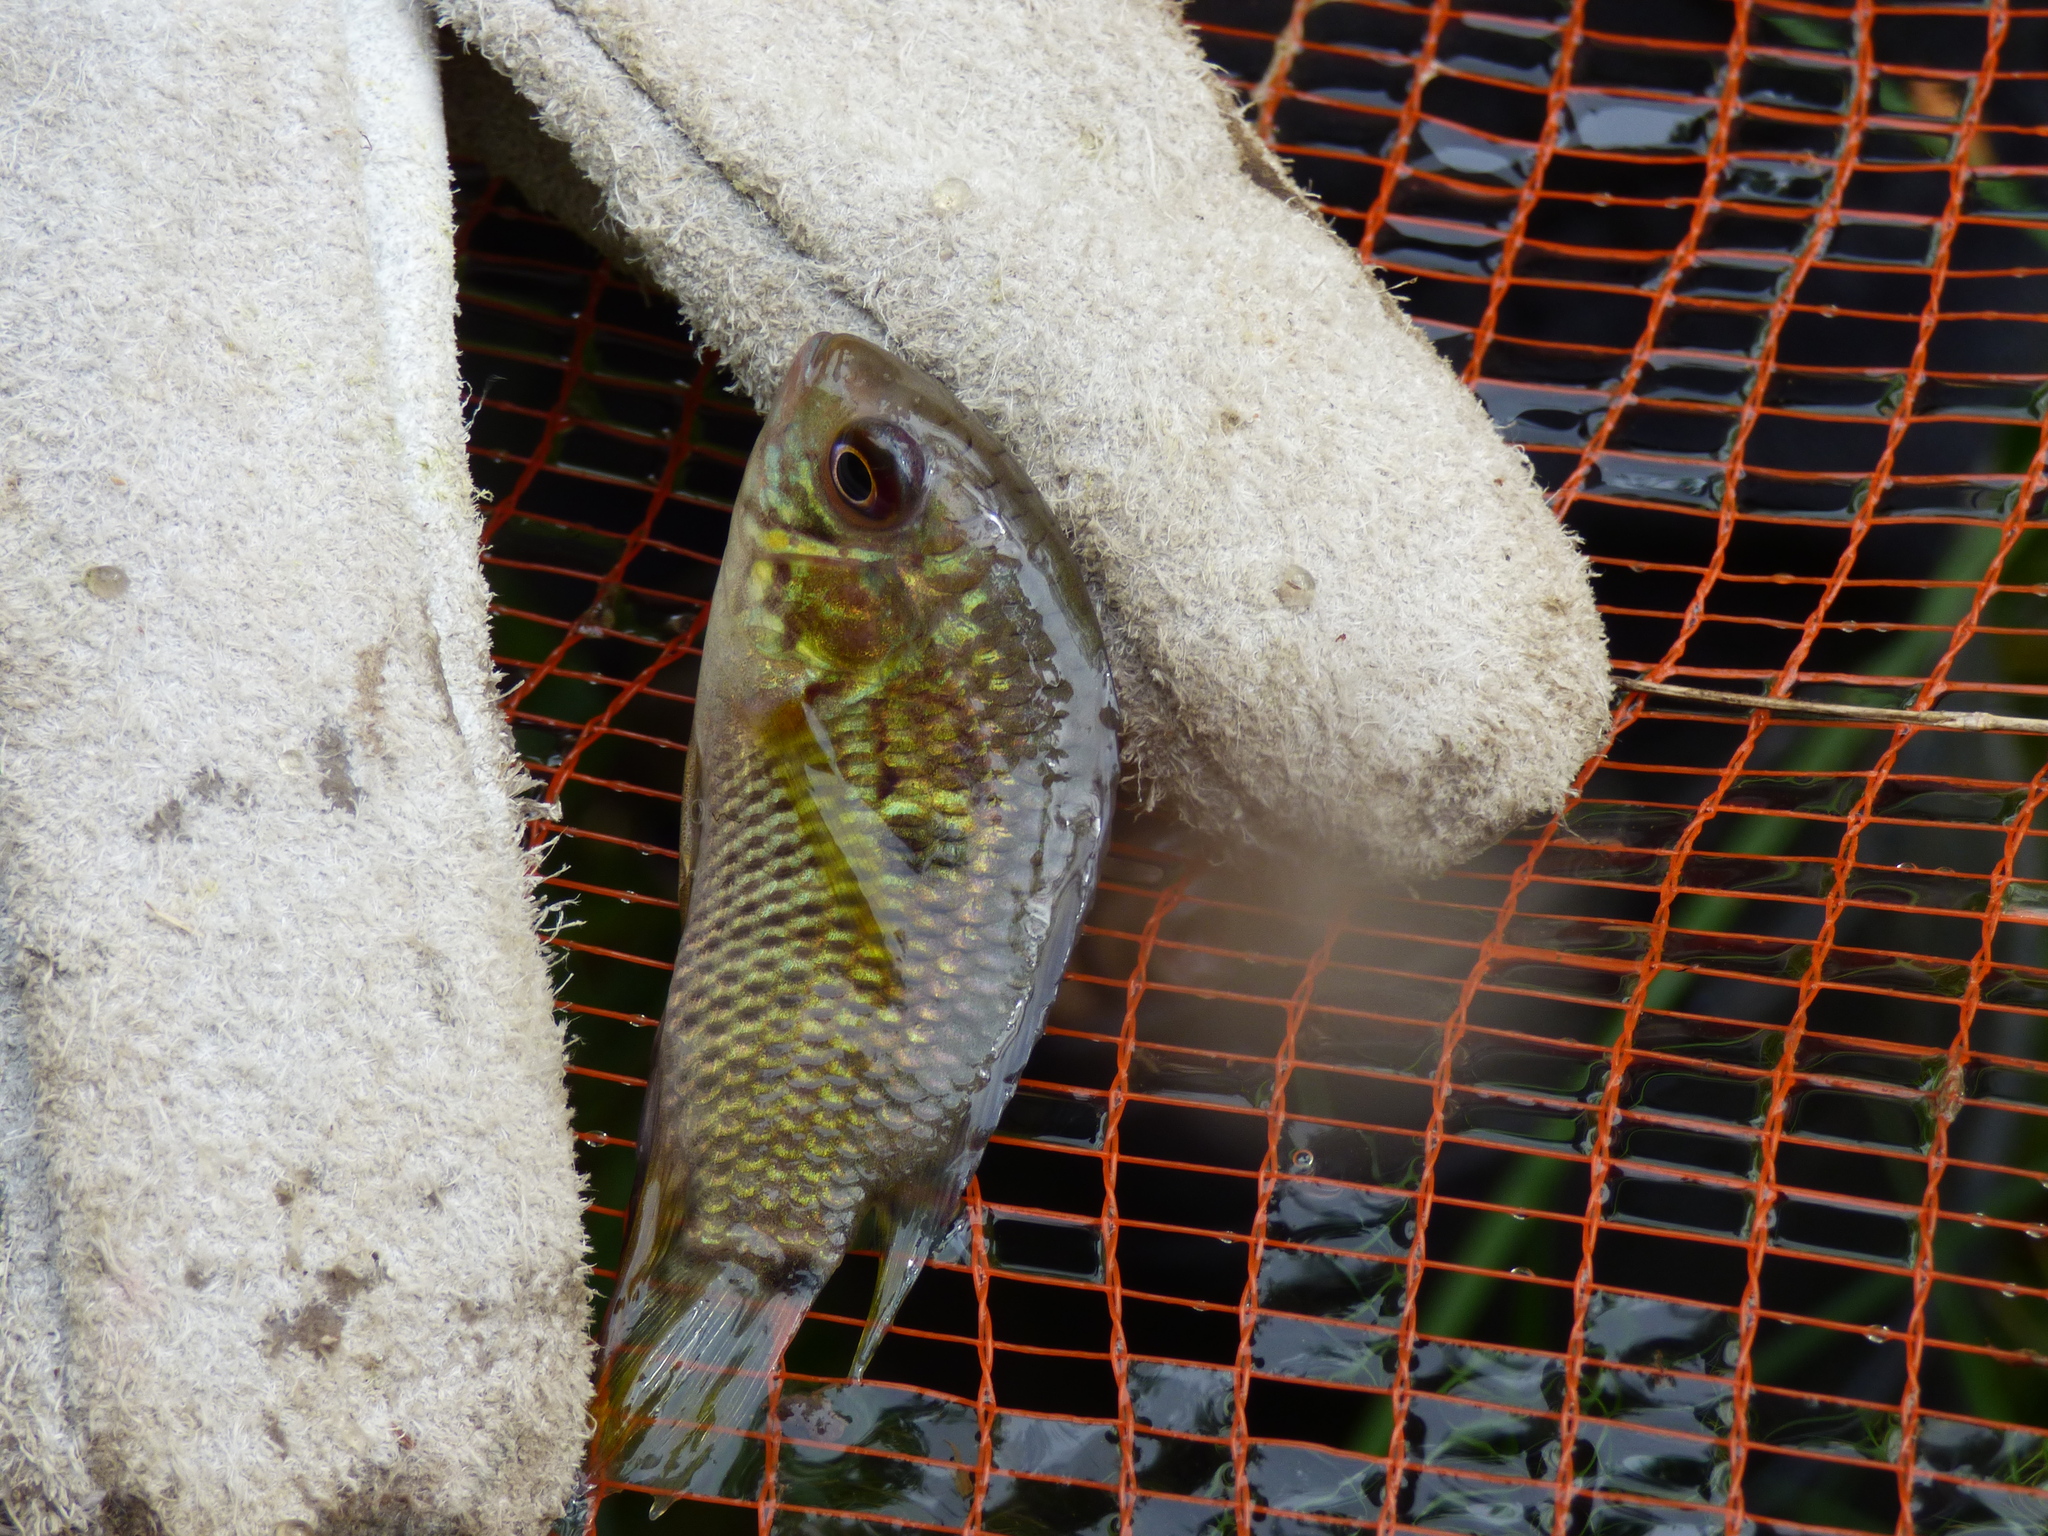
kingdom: Animalia
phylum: Chordata
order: Perciformes
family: Cichlidae
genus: Cichlasoma
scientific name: Cichlasoma dimerus
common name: Chanchita
